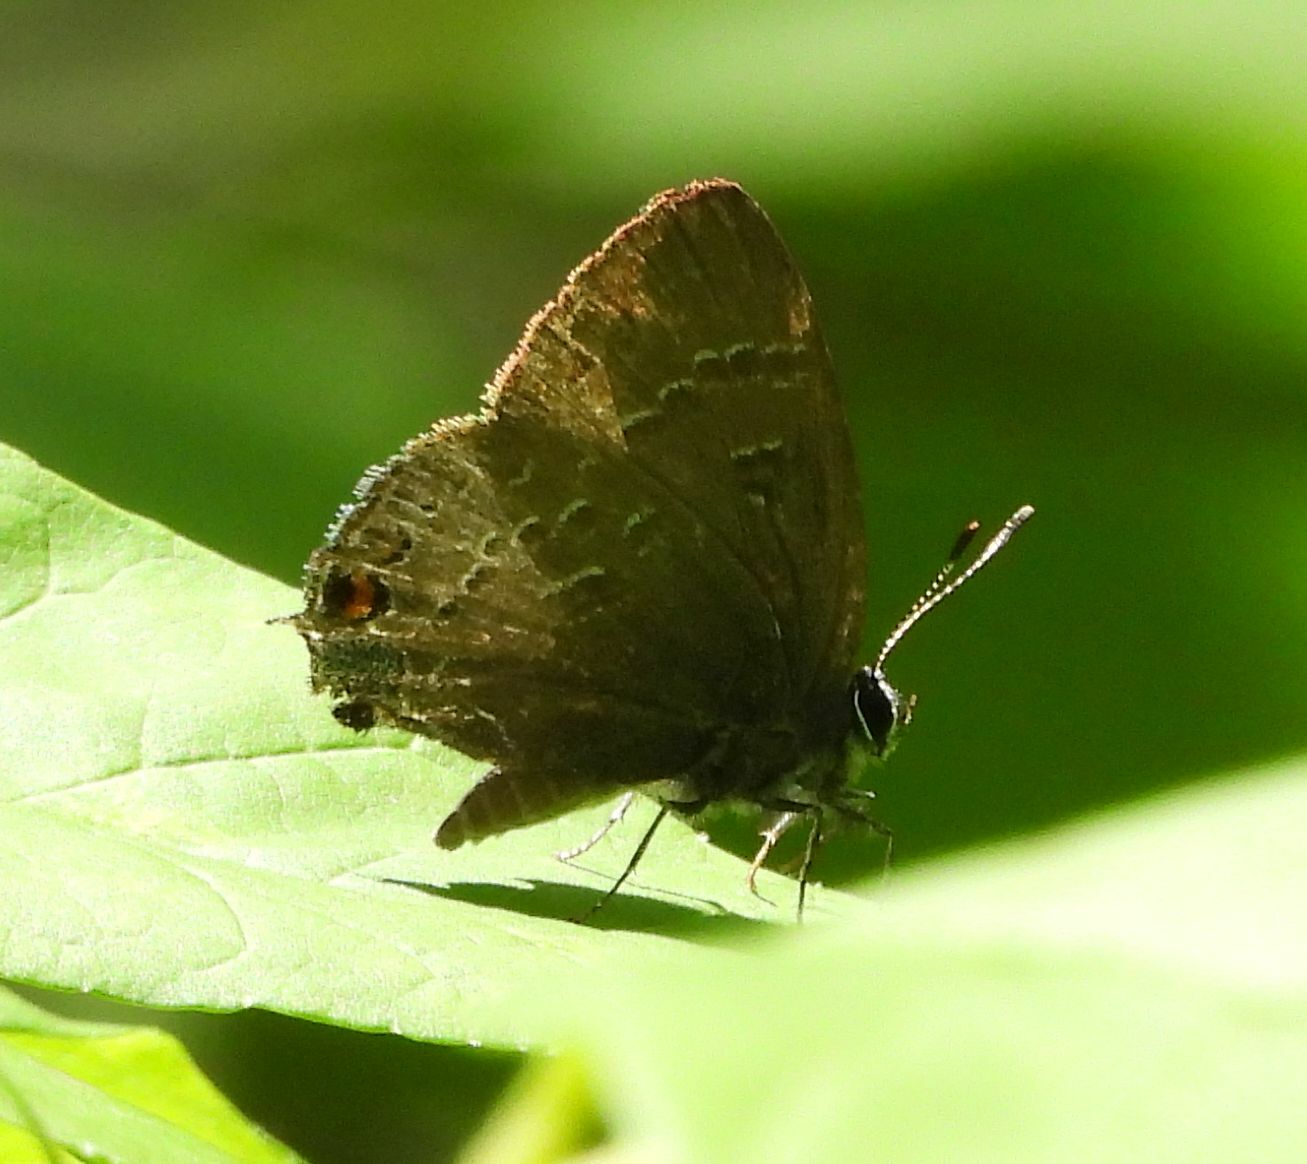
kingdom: Animalia
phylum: Arthropoda
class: Insecta
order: Lepidoptera
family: Lycaenidae
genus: Satyrium
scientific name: Satyrium calanus
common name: Banded hairstreak
